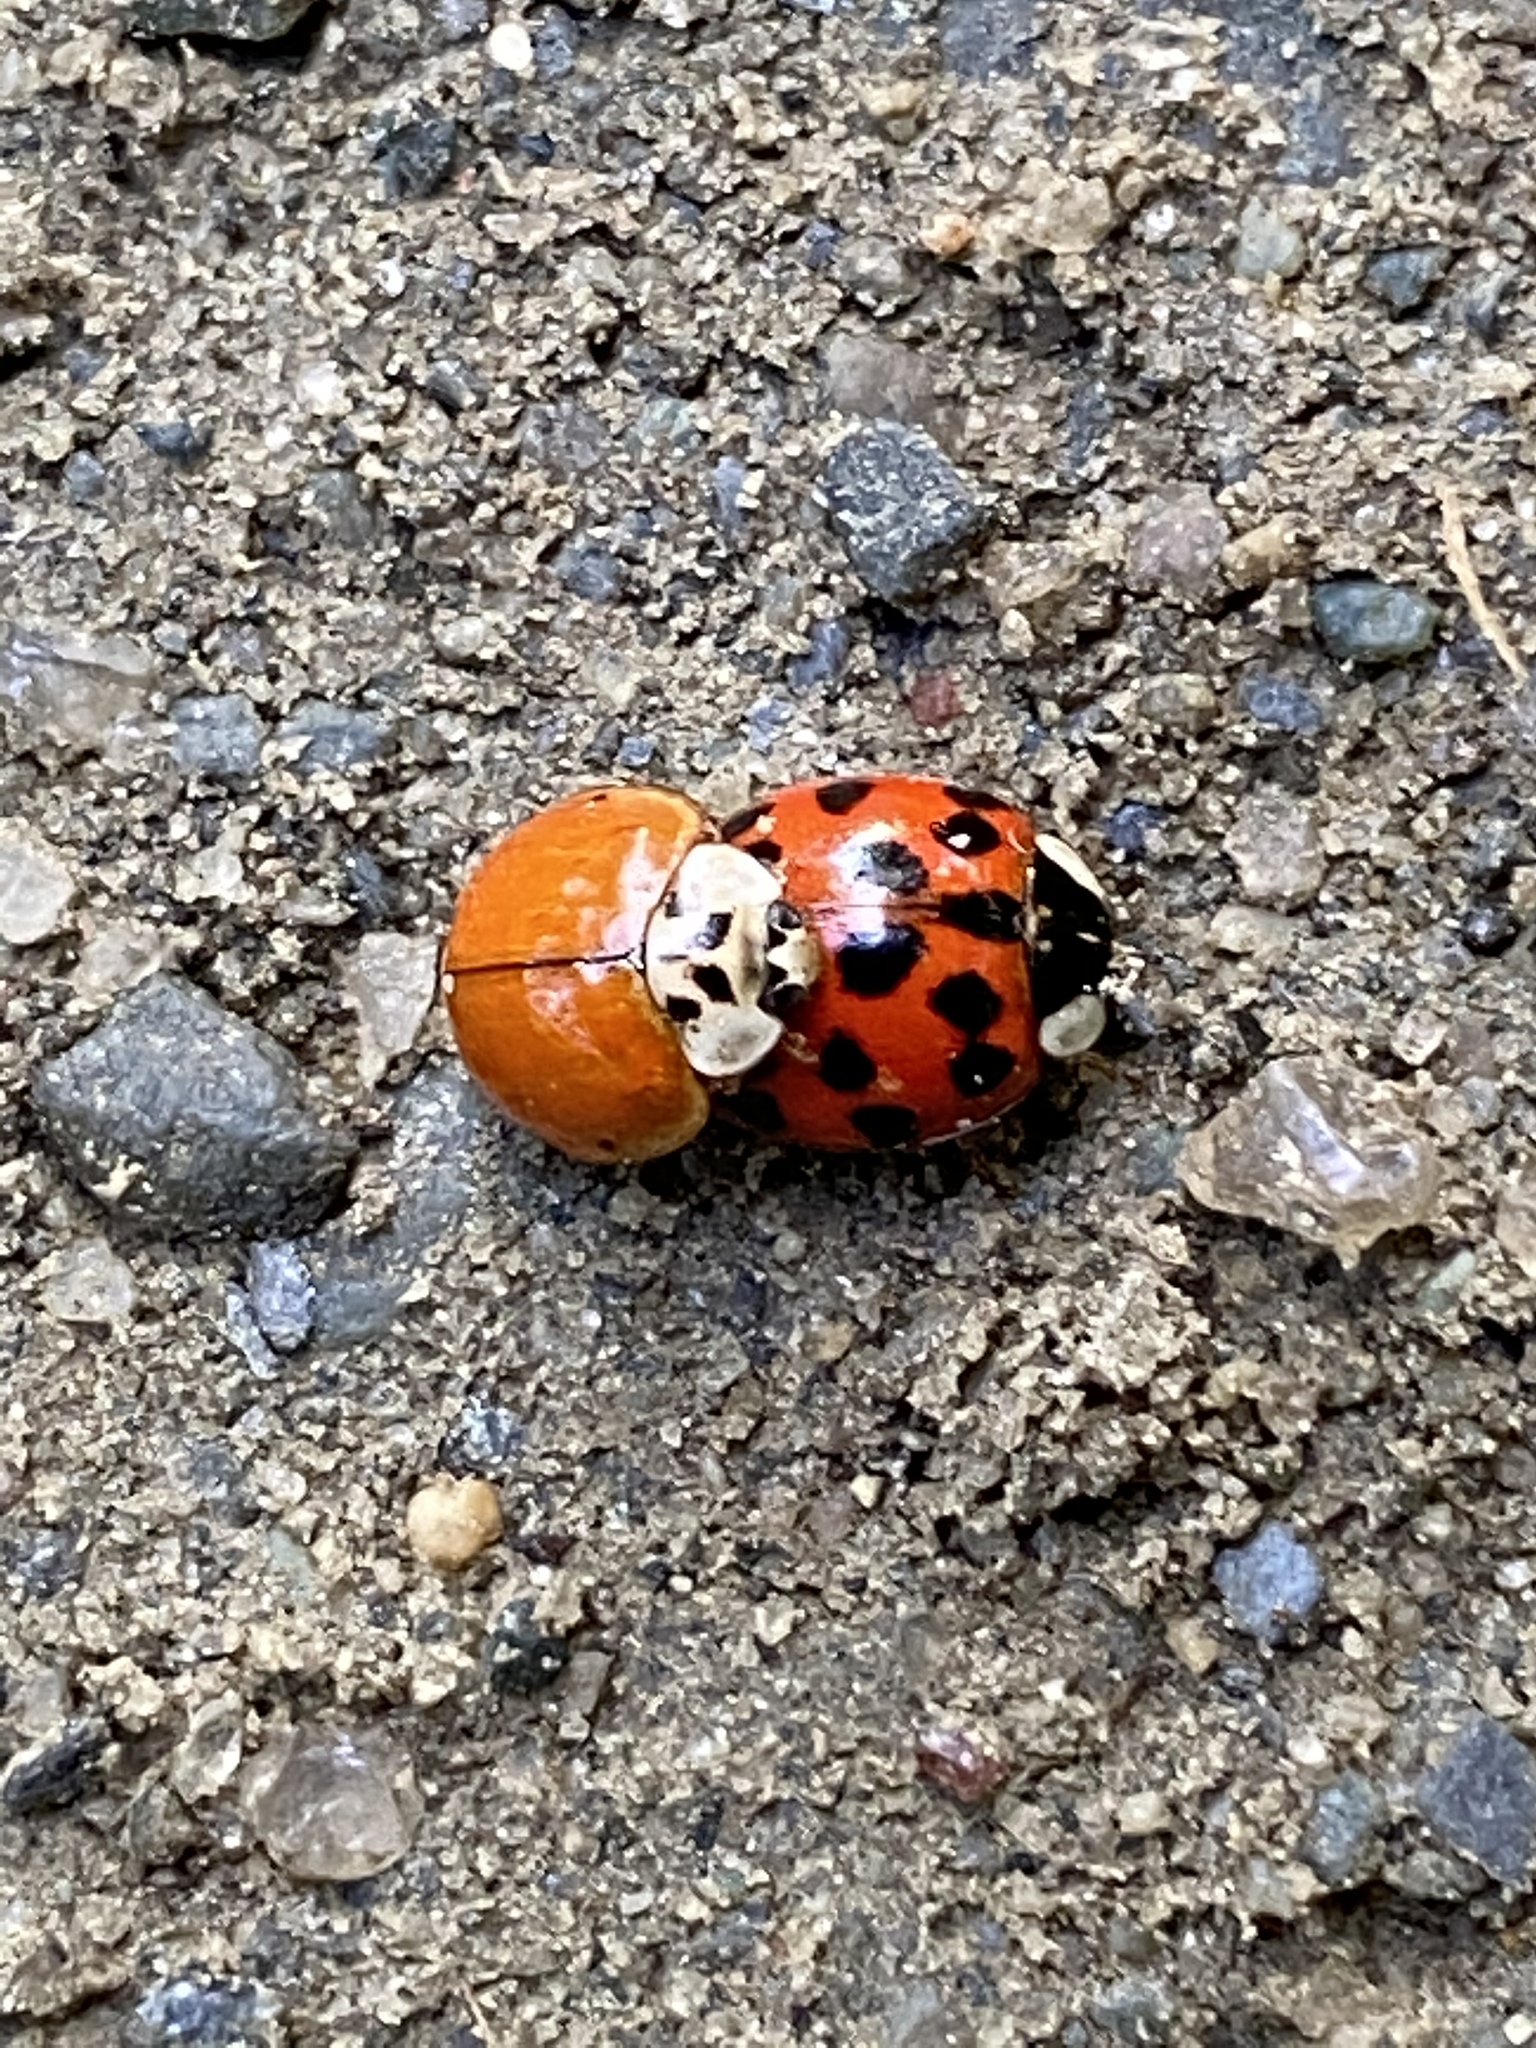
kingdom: Animalia
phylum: Arthropoda
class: Insecta
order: Coleoptera
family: Coccinellidae
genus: Harmonia
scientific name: Harmonia axyridis
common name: Harlequin ladybird
